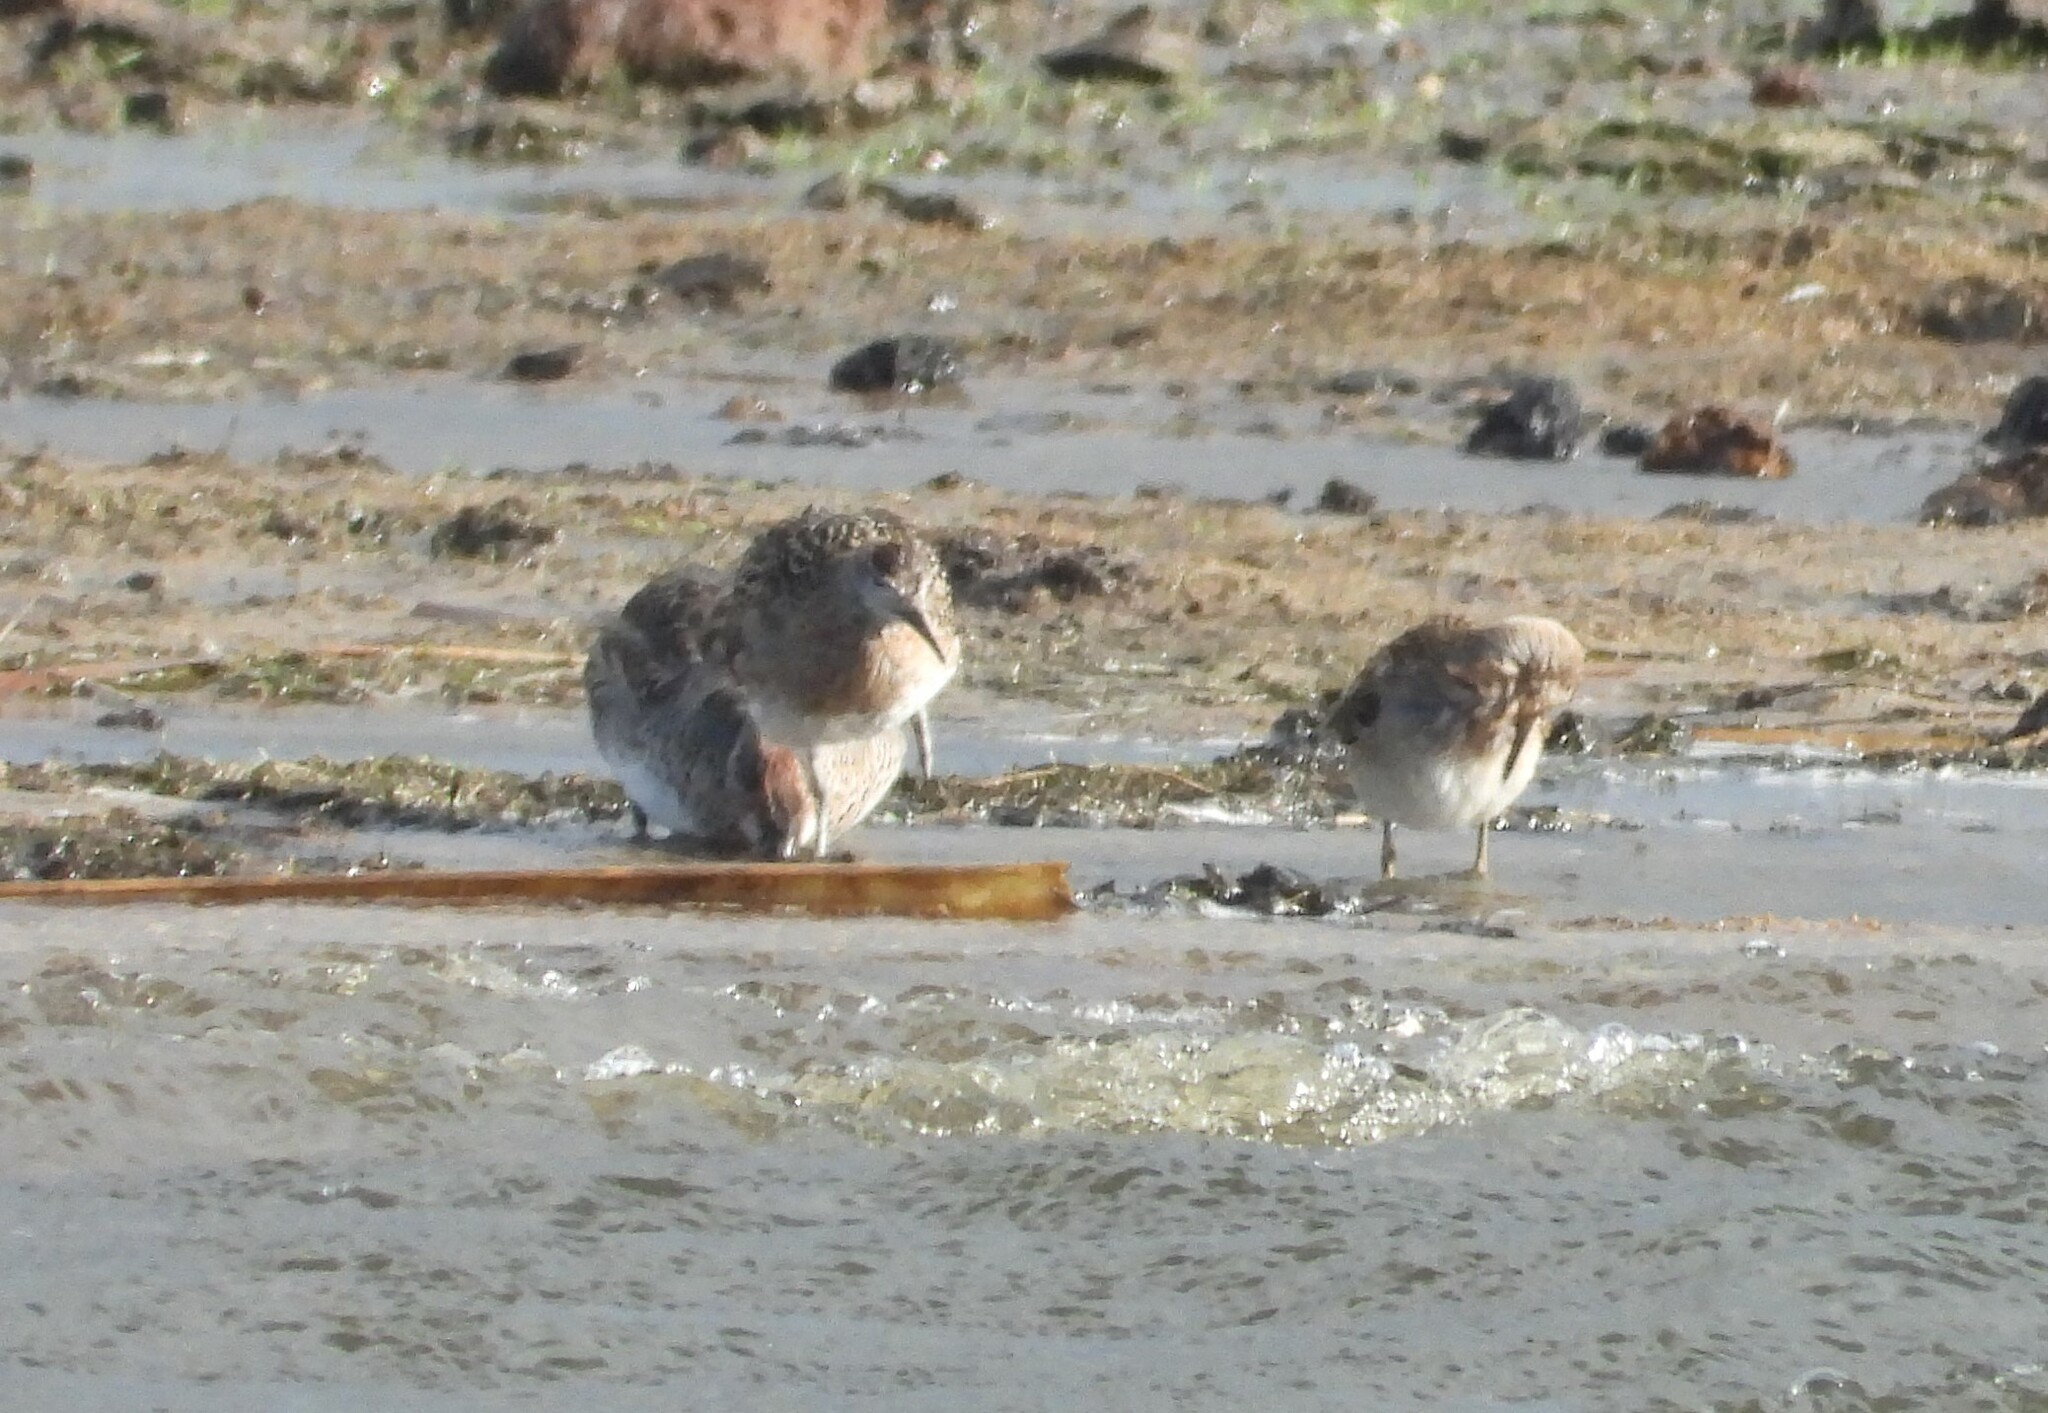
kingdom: Animalia
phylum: Chordata
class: Aves
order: Charadriiformes
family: Scolopacidae
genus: Calidris
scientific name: Calidris pugnax
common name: Ruff
